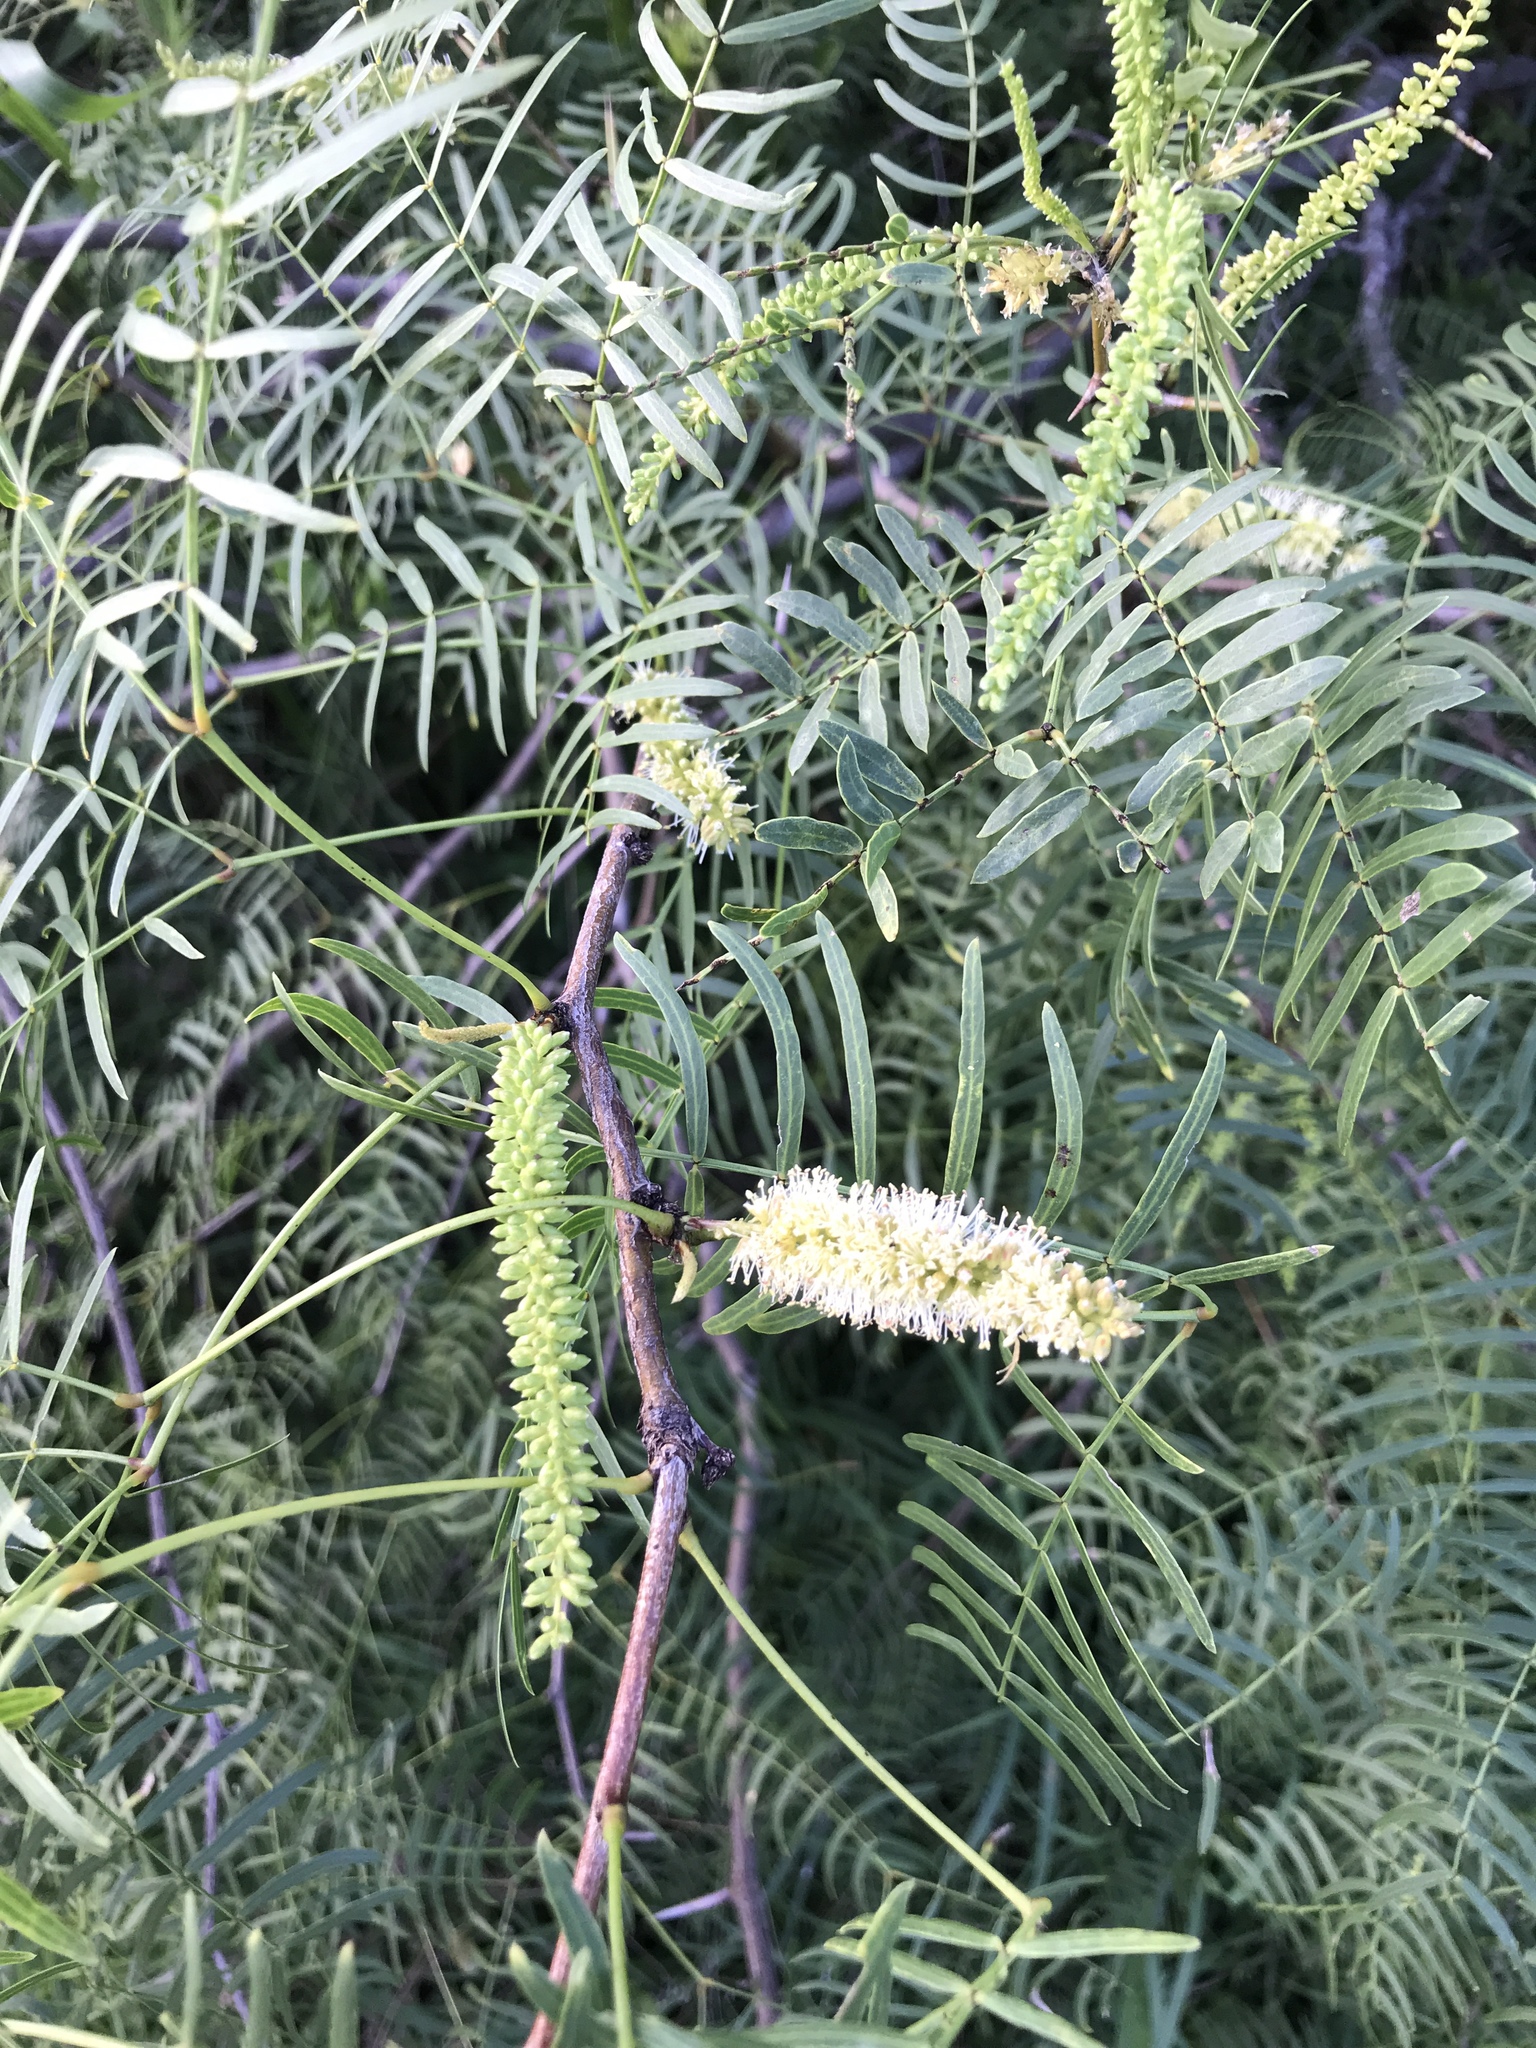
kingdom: Plantae
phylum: Tracheophyta
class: Magnoliopsida
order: Fabales
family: Fabaceae
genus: Prosopis
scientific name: Prosopis glandulosa
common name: Honey mesquite
